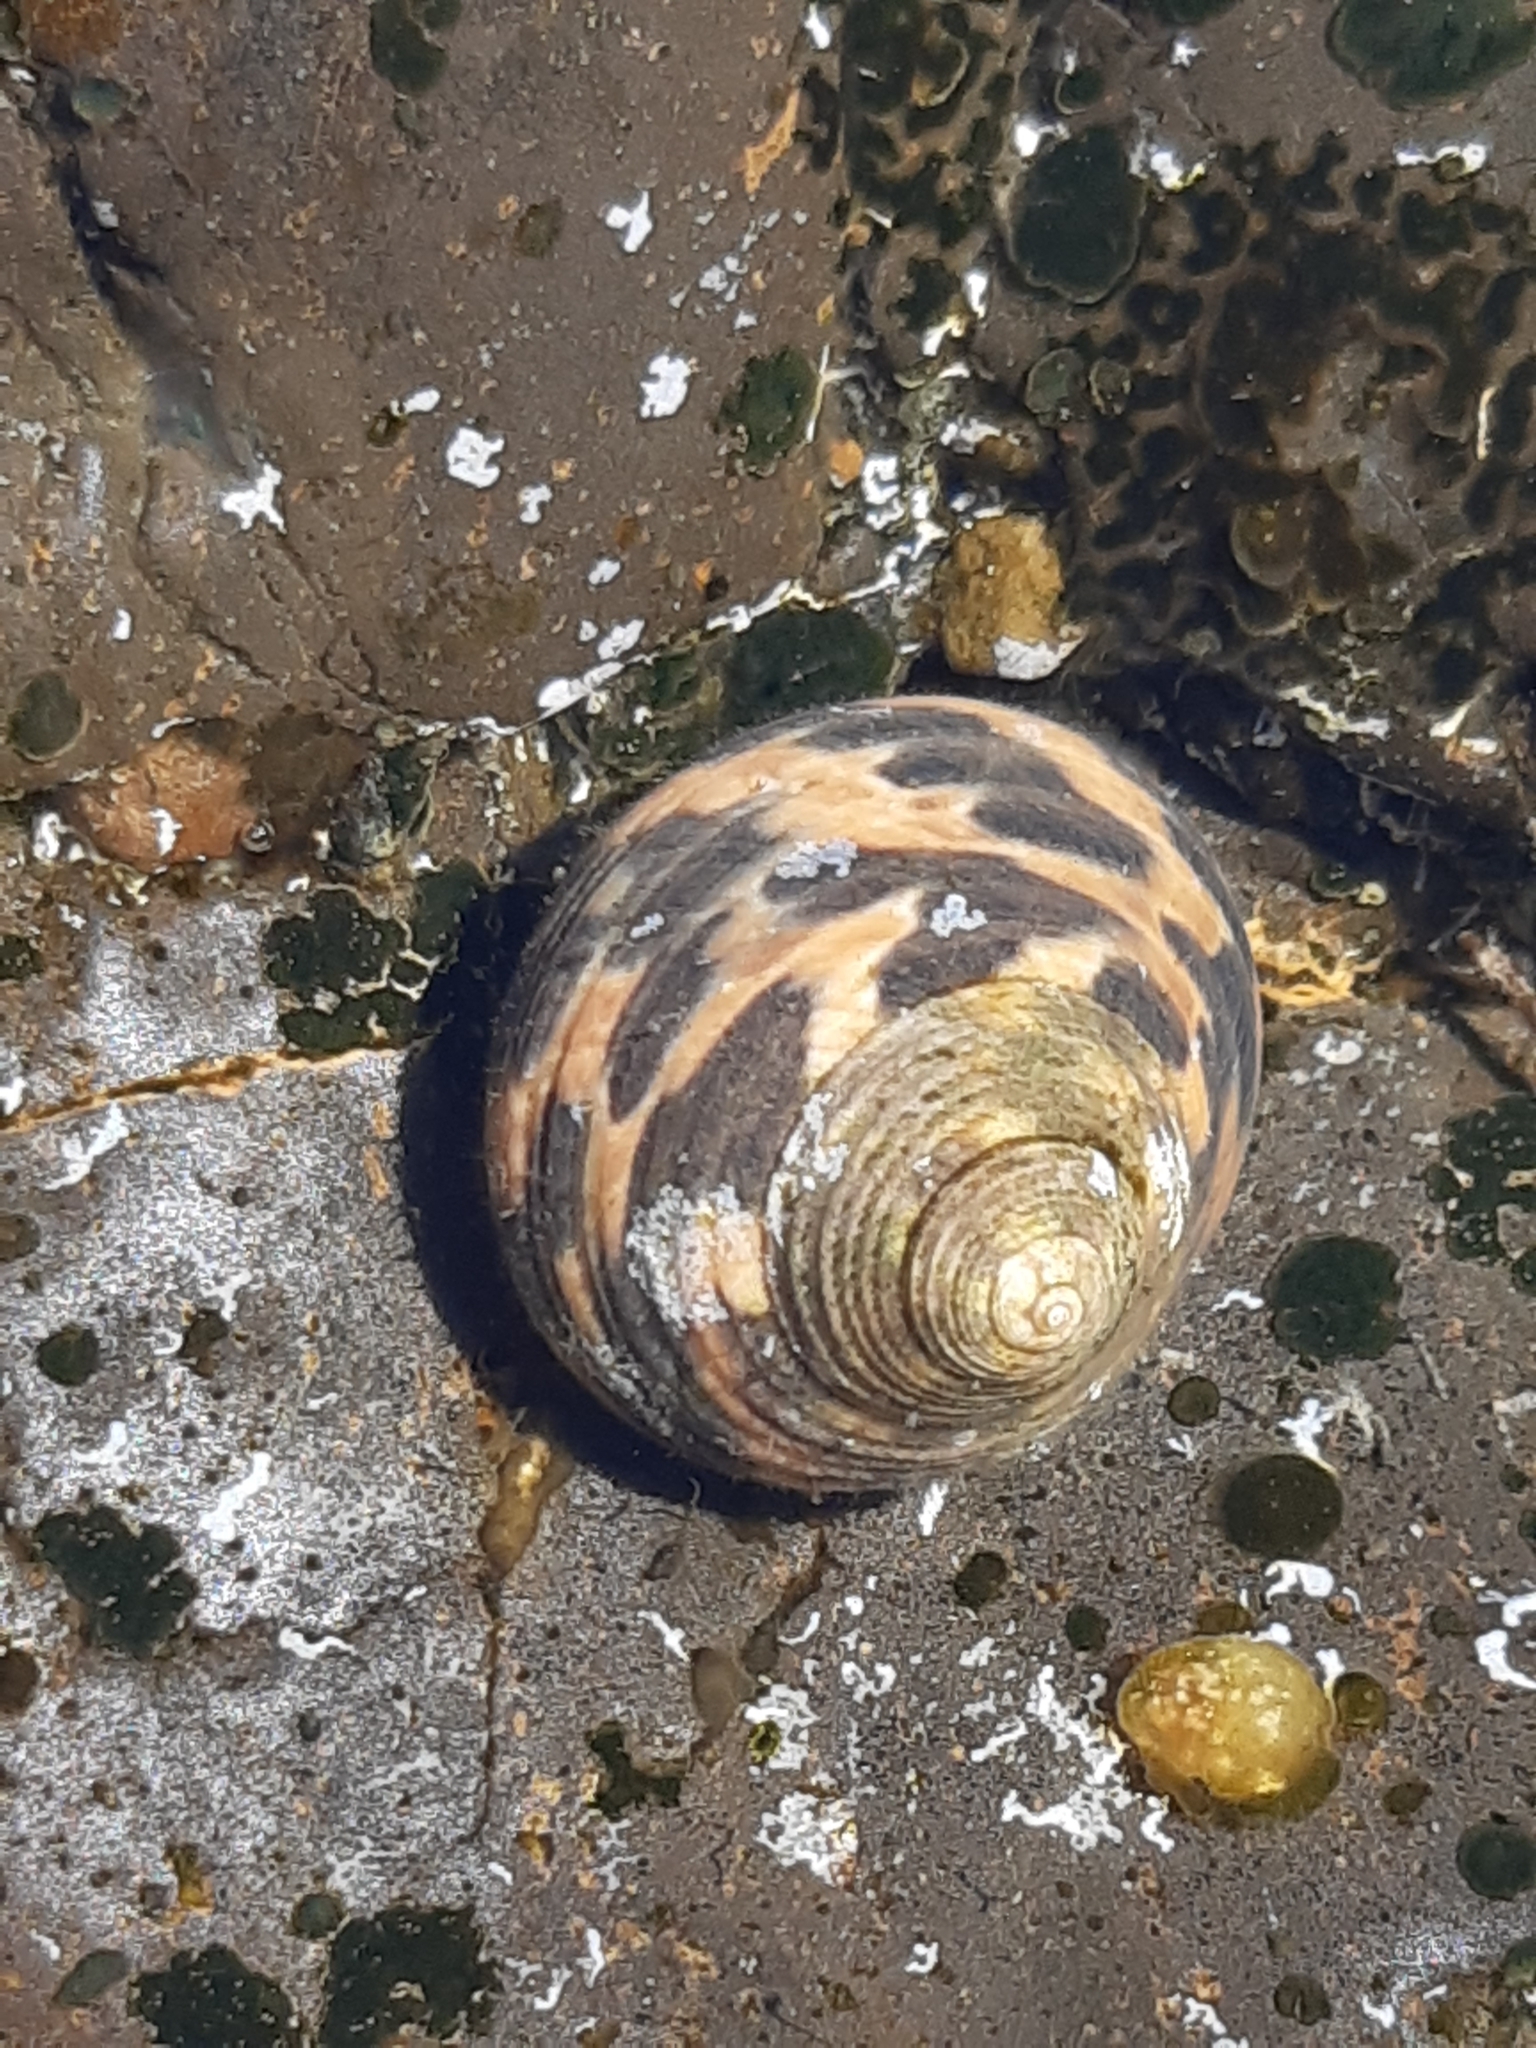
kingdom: Animalia
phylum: Mollusca
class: Gastropoda
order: Trochida
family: Trochidae
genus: Phorcus
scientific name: Phorcus turbinatus
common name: Turbinate monodont
